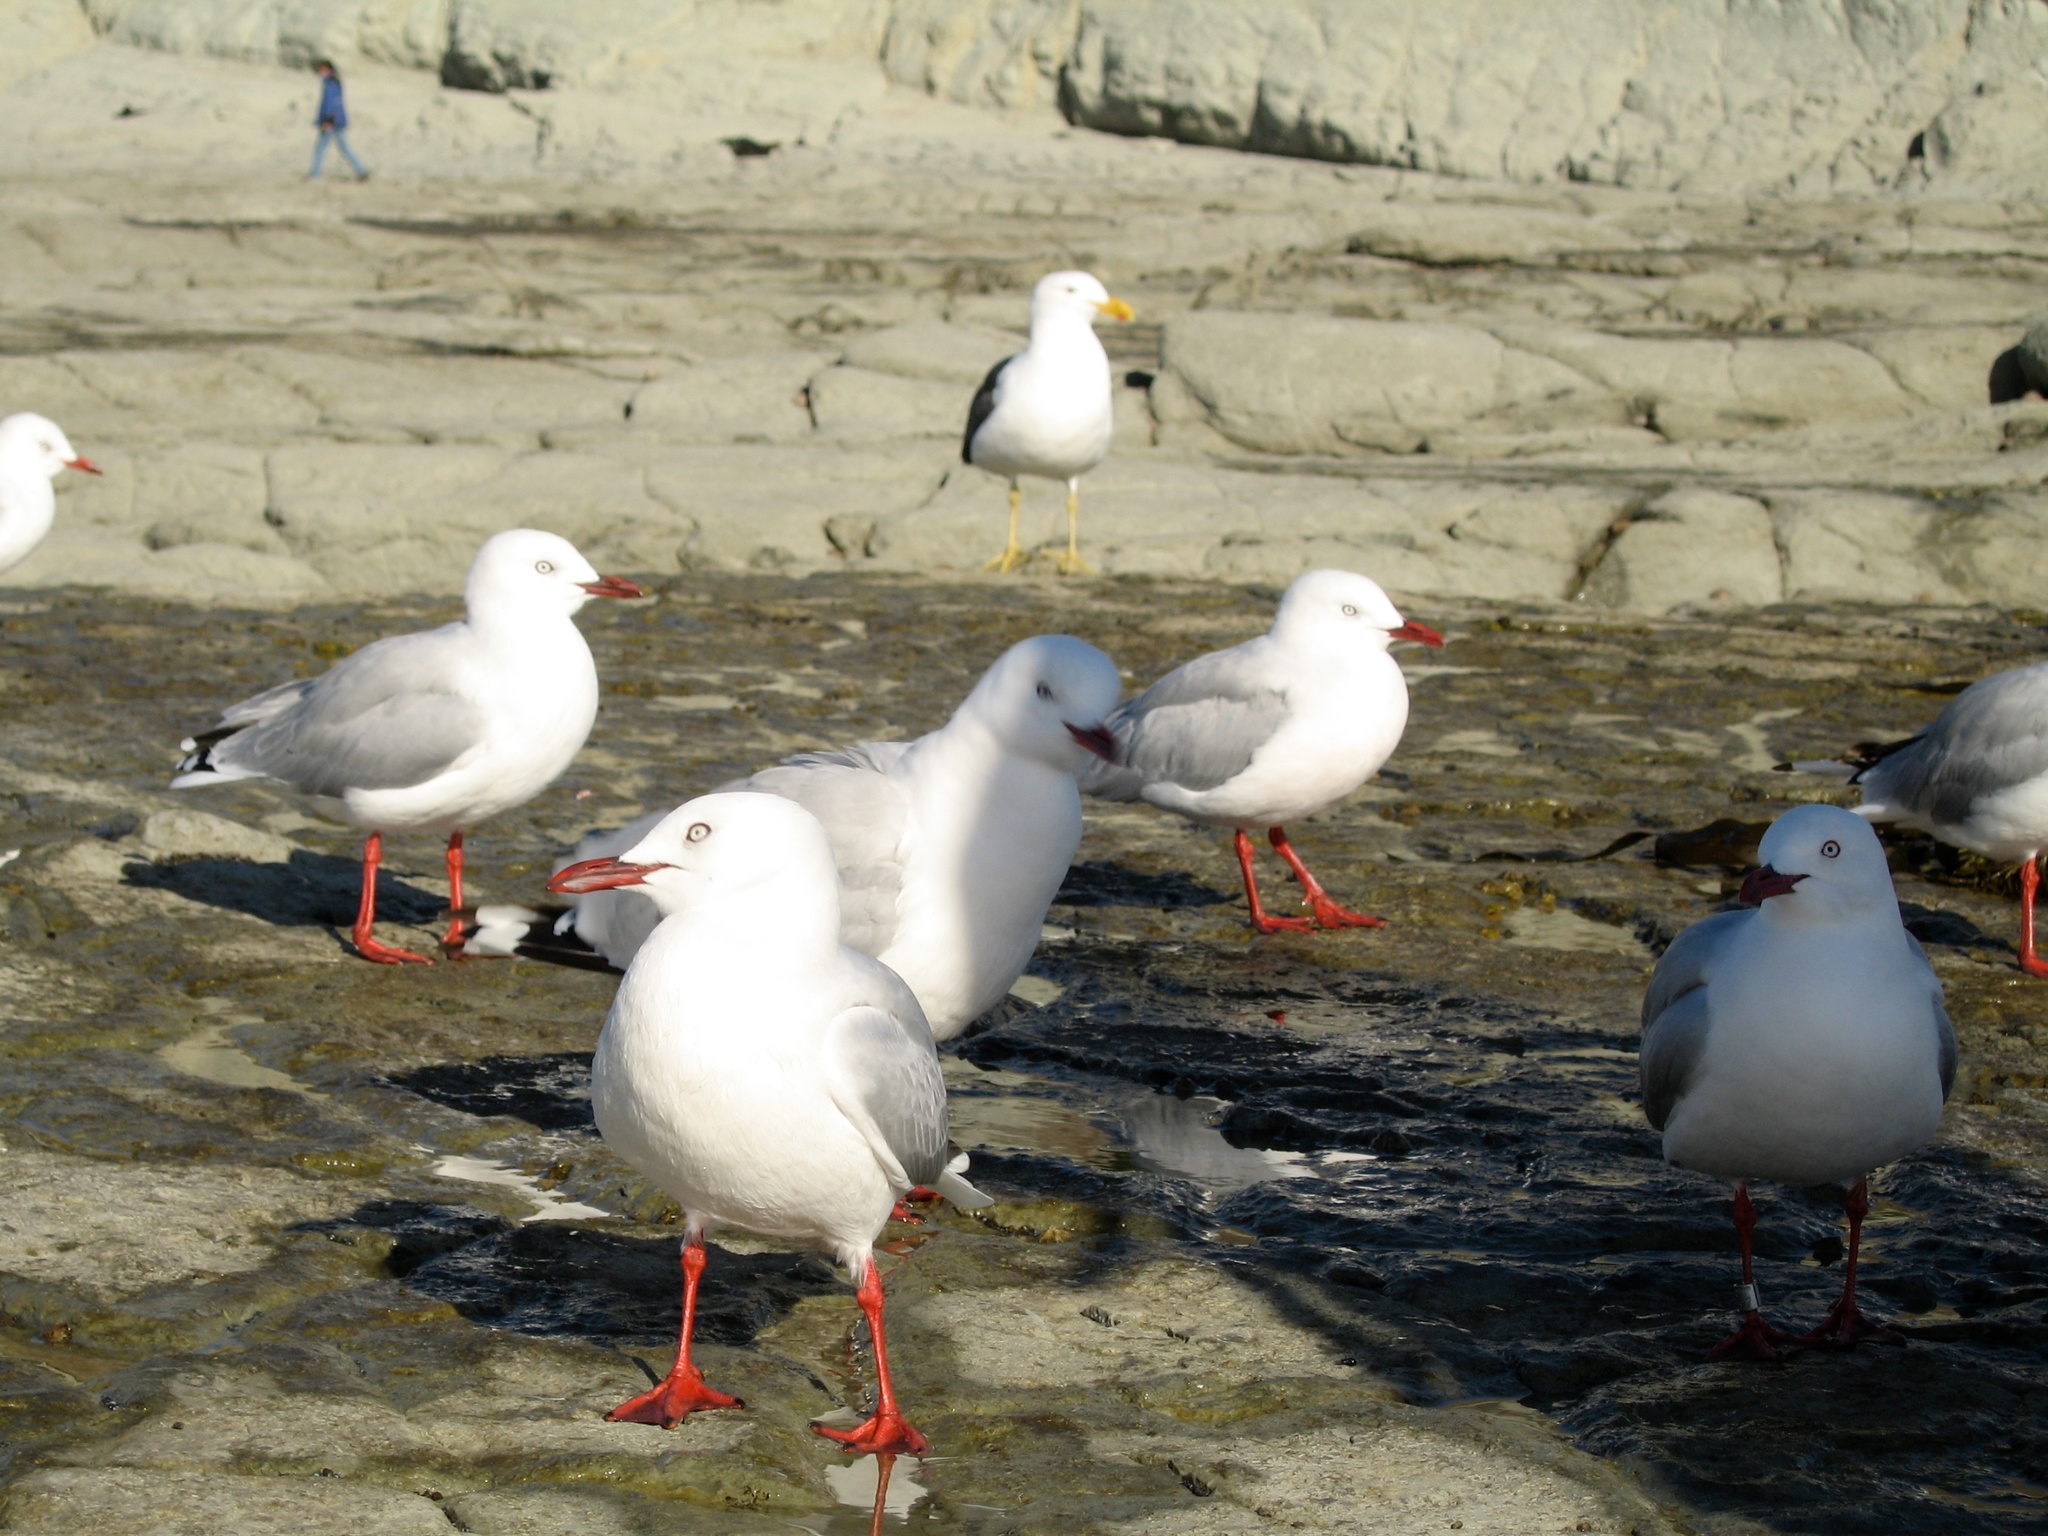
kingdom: Animalia
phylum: Chordata
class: Aves
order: Charadriiformes
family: Laridae
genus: Chroicocephalus
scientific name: Chroicocephalus novaehollandiae
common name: Silver gull
